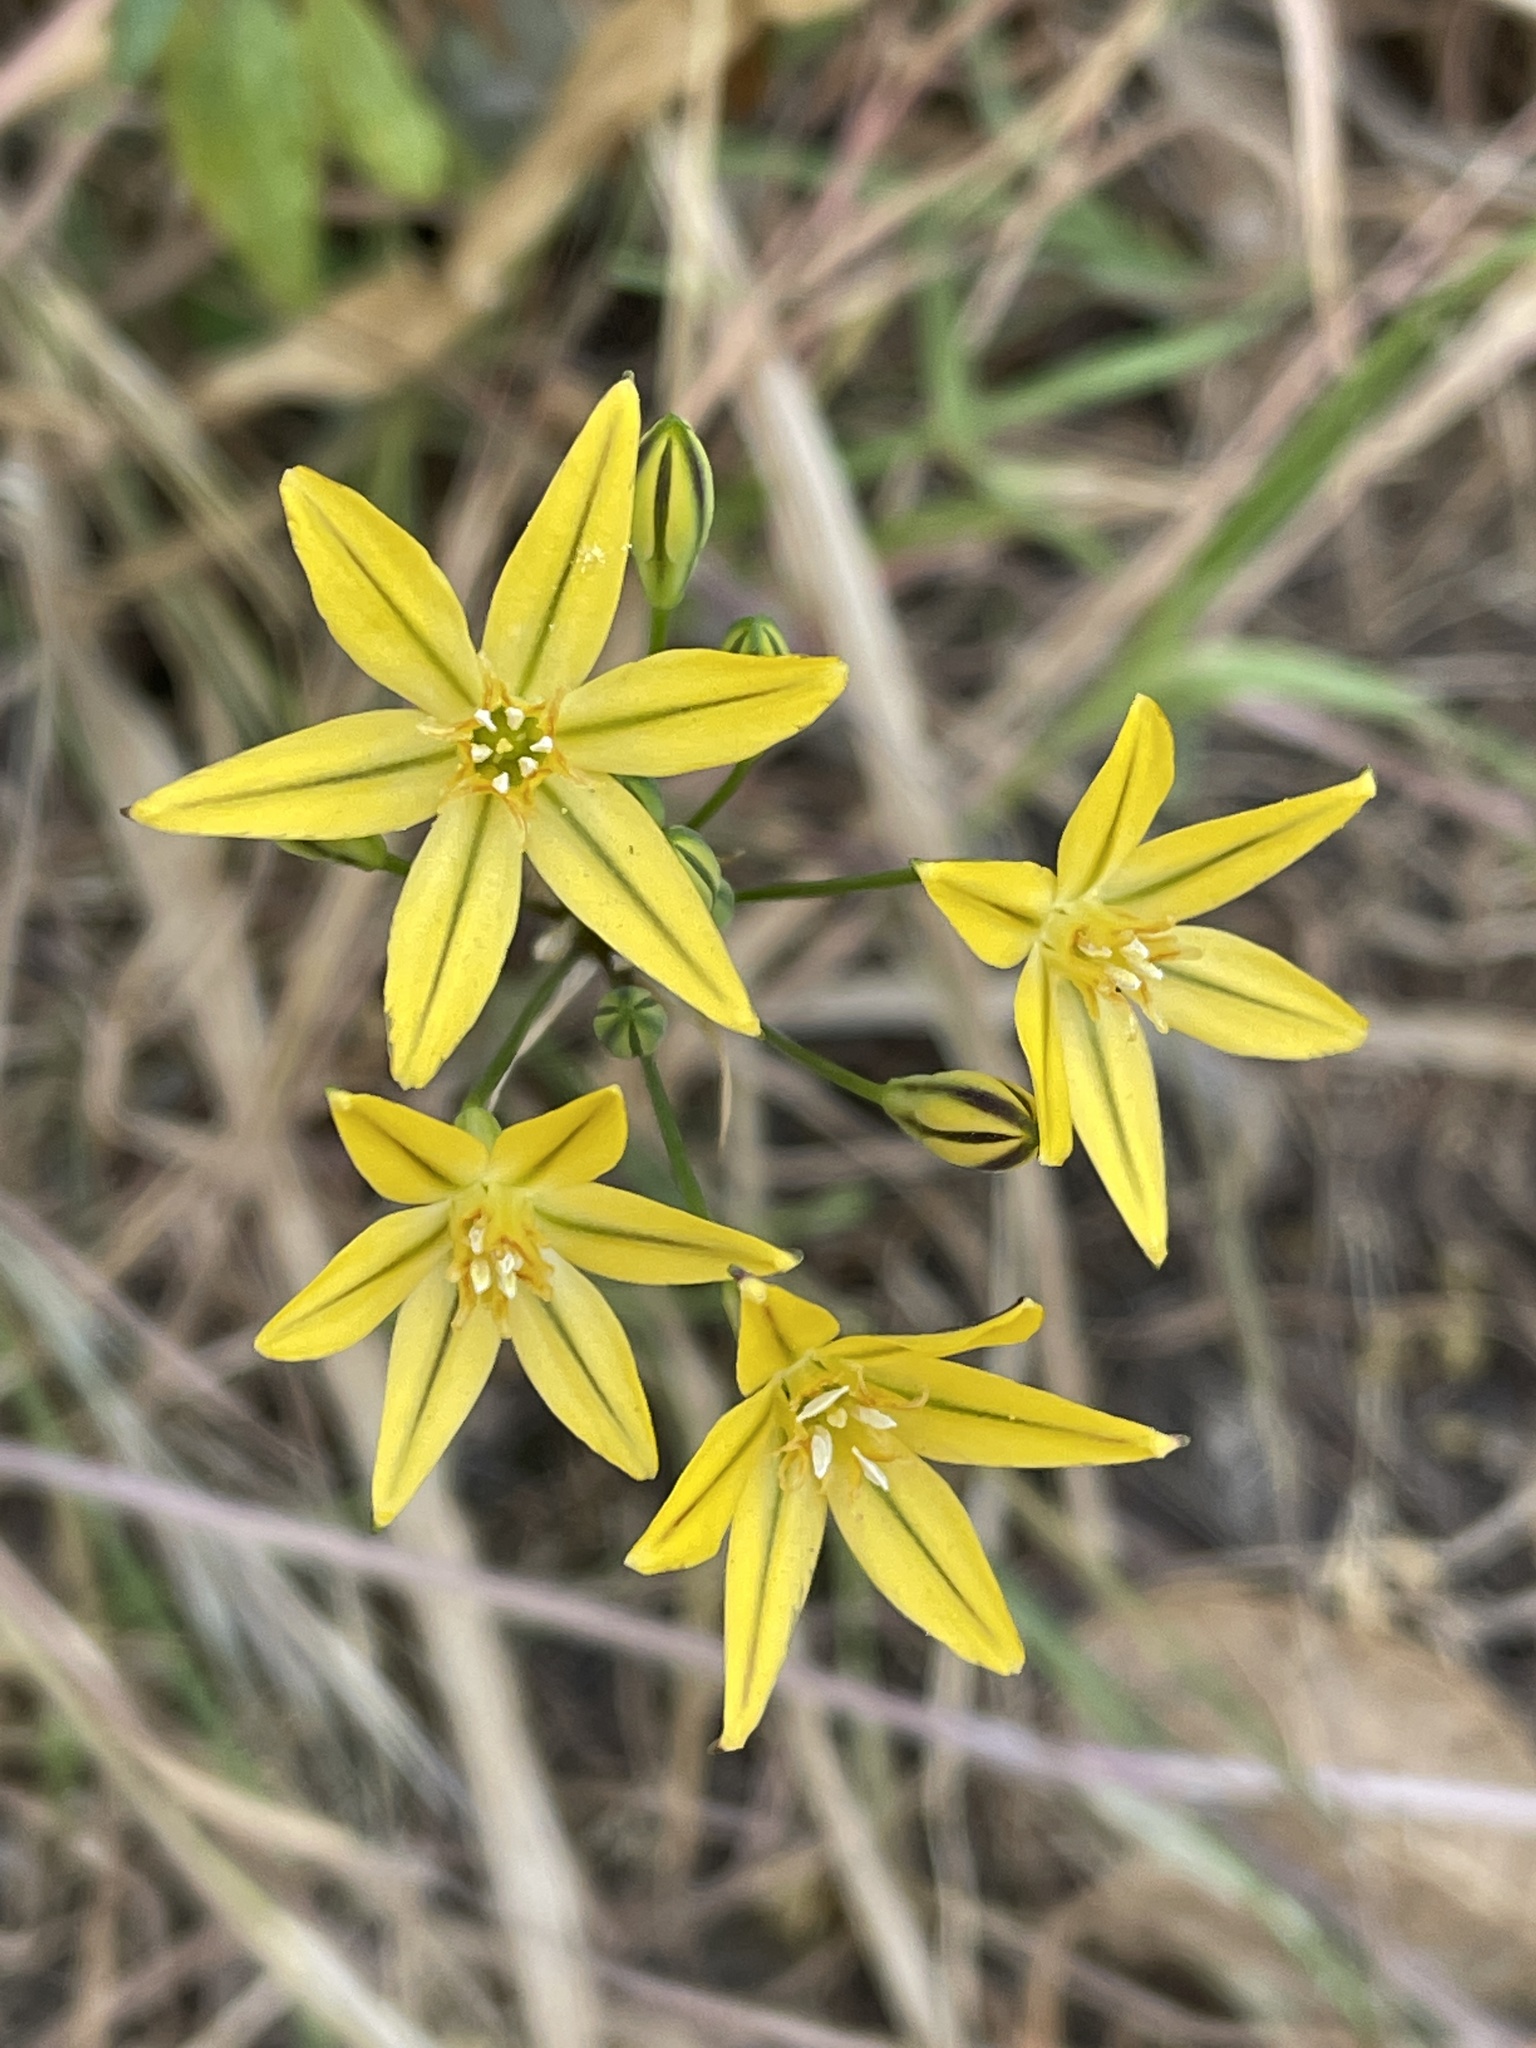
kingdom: Plantae
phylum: Tracheophyta
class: Liliopsida
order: Asparagales
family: Asparagaceae
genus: Triteleia
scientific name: Triteleia ixioides
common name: Yellow-brodiaea
